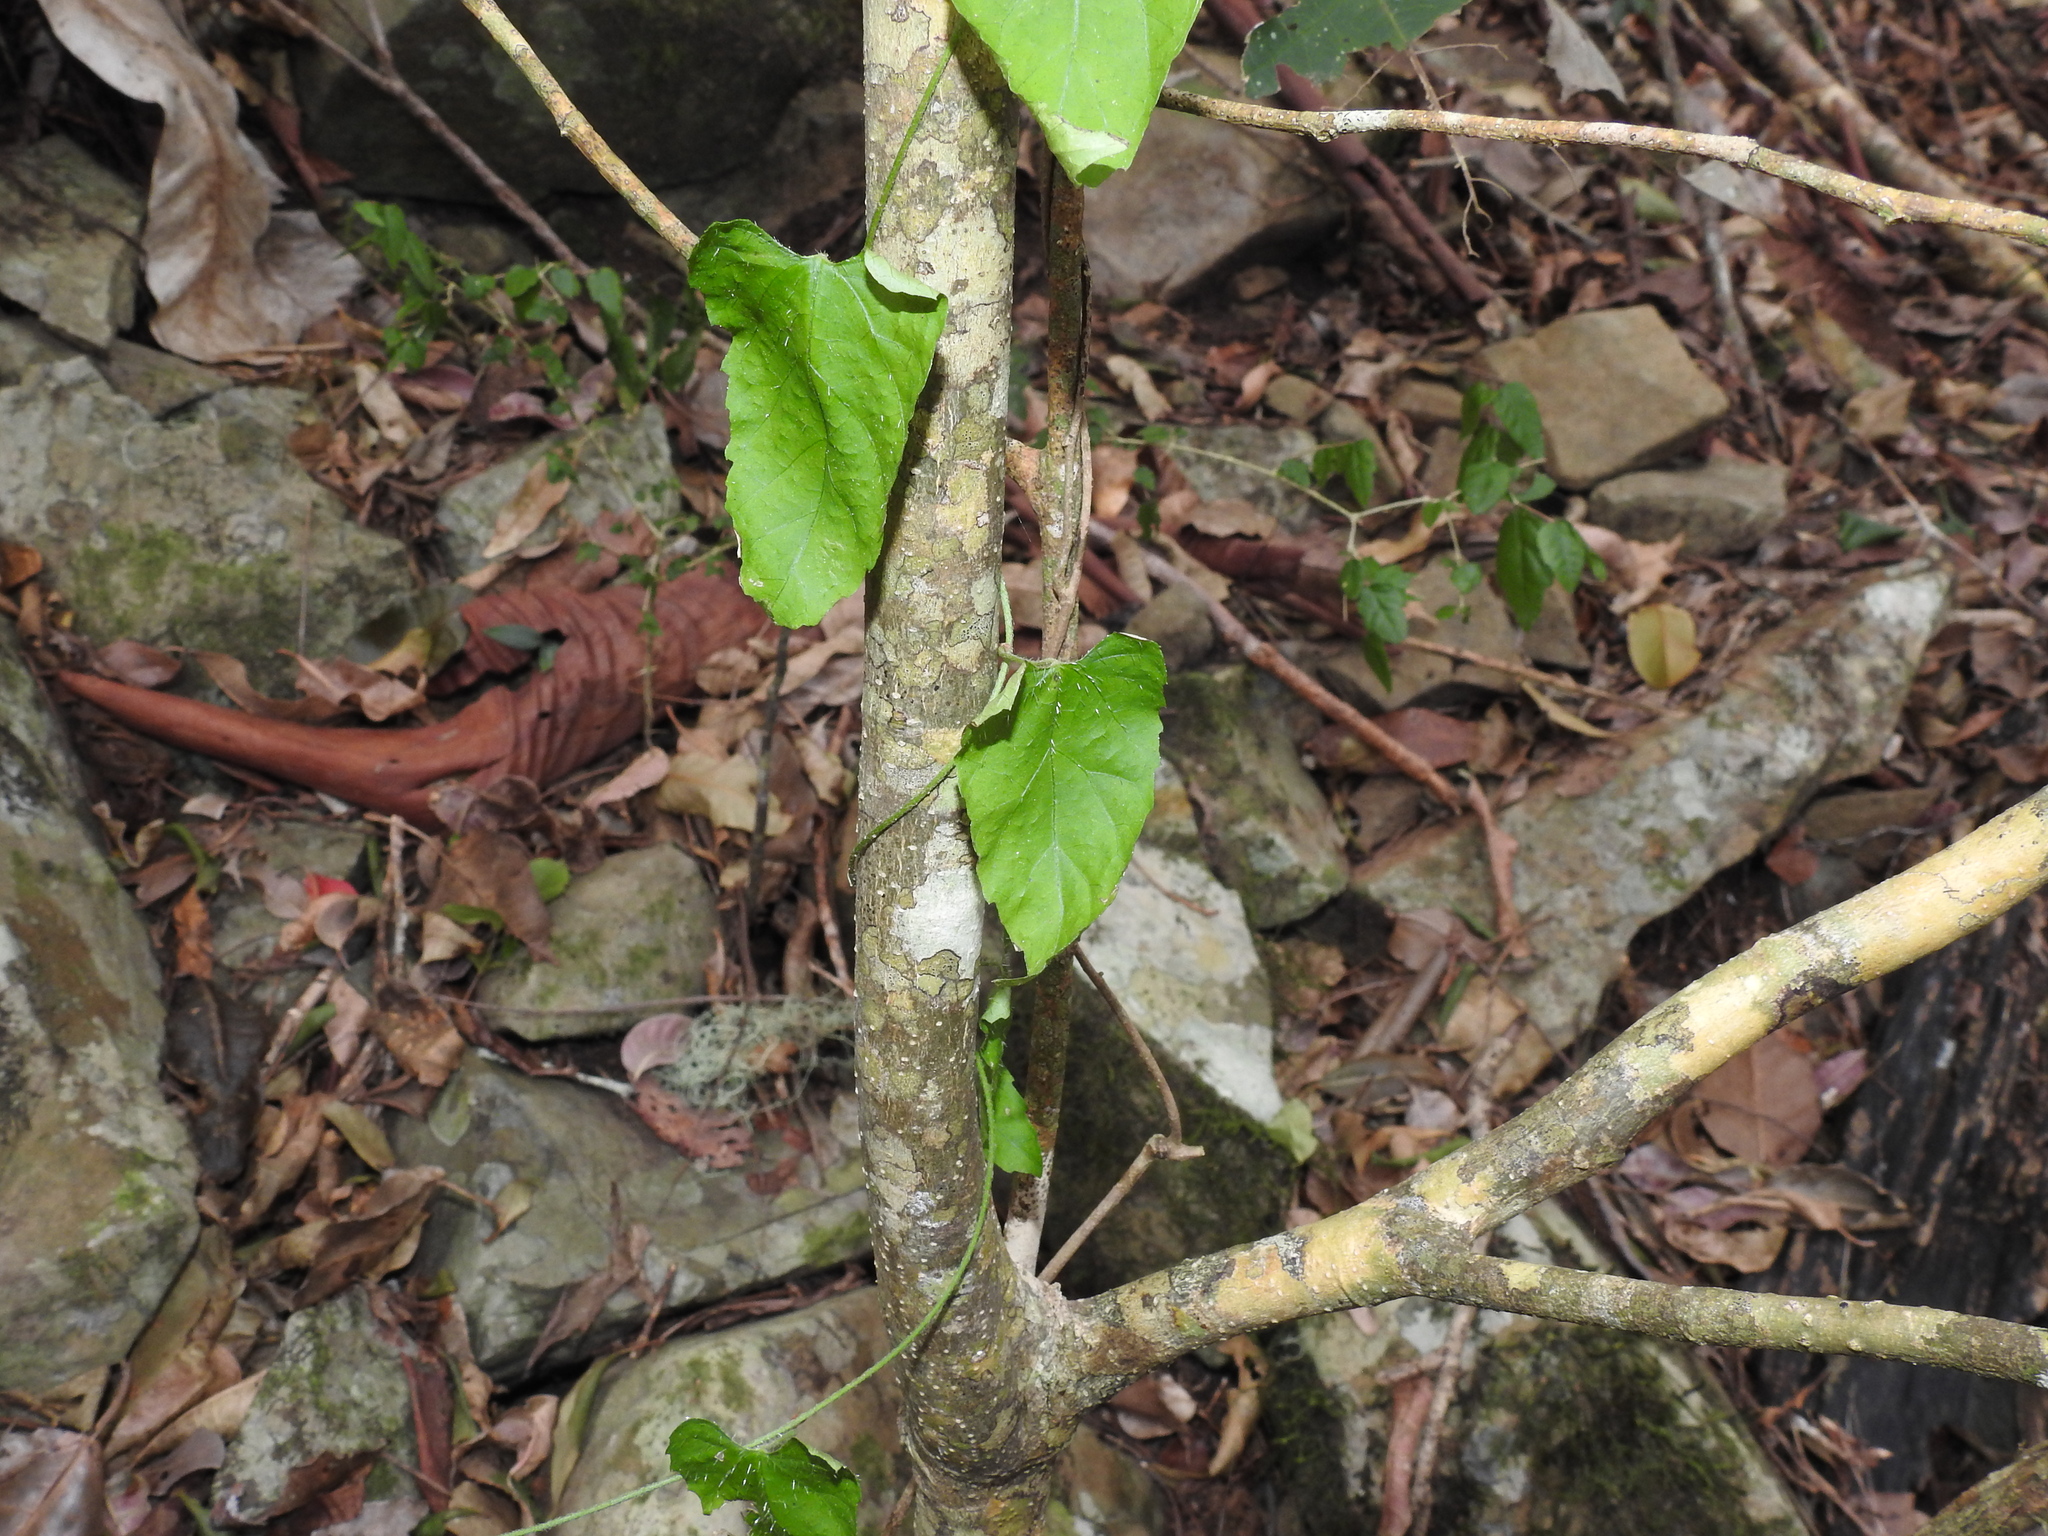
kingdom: Plantae
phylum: Tracheophyta
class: Magnoliopsida
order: Malpighiales
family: Euphorbiaceae
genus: Tragia
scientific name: Tragia novae-hollandiae
